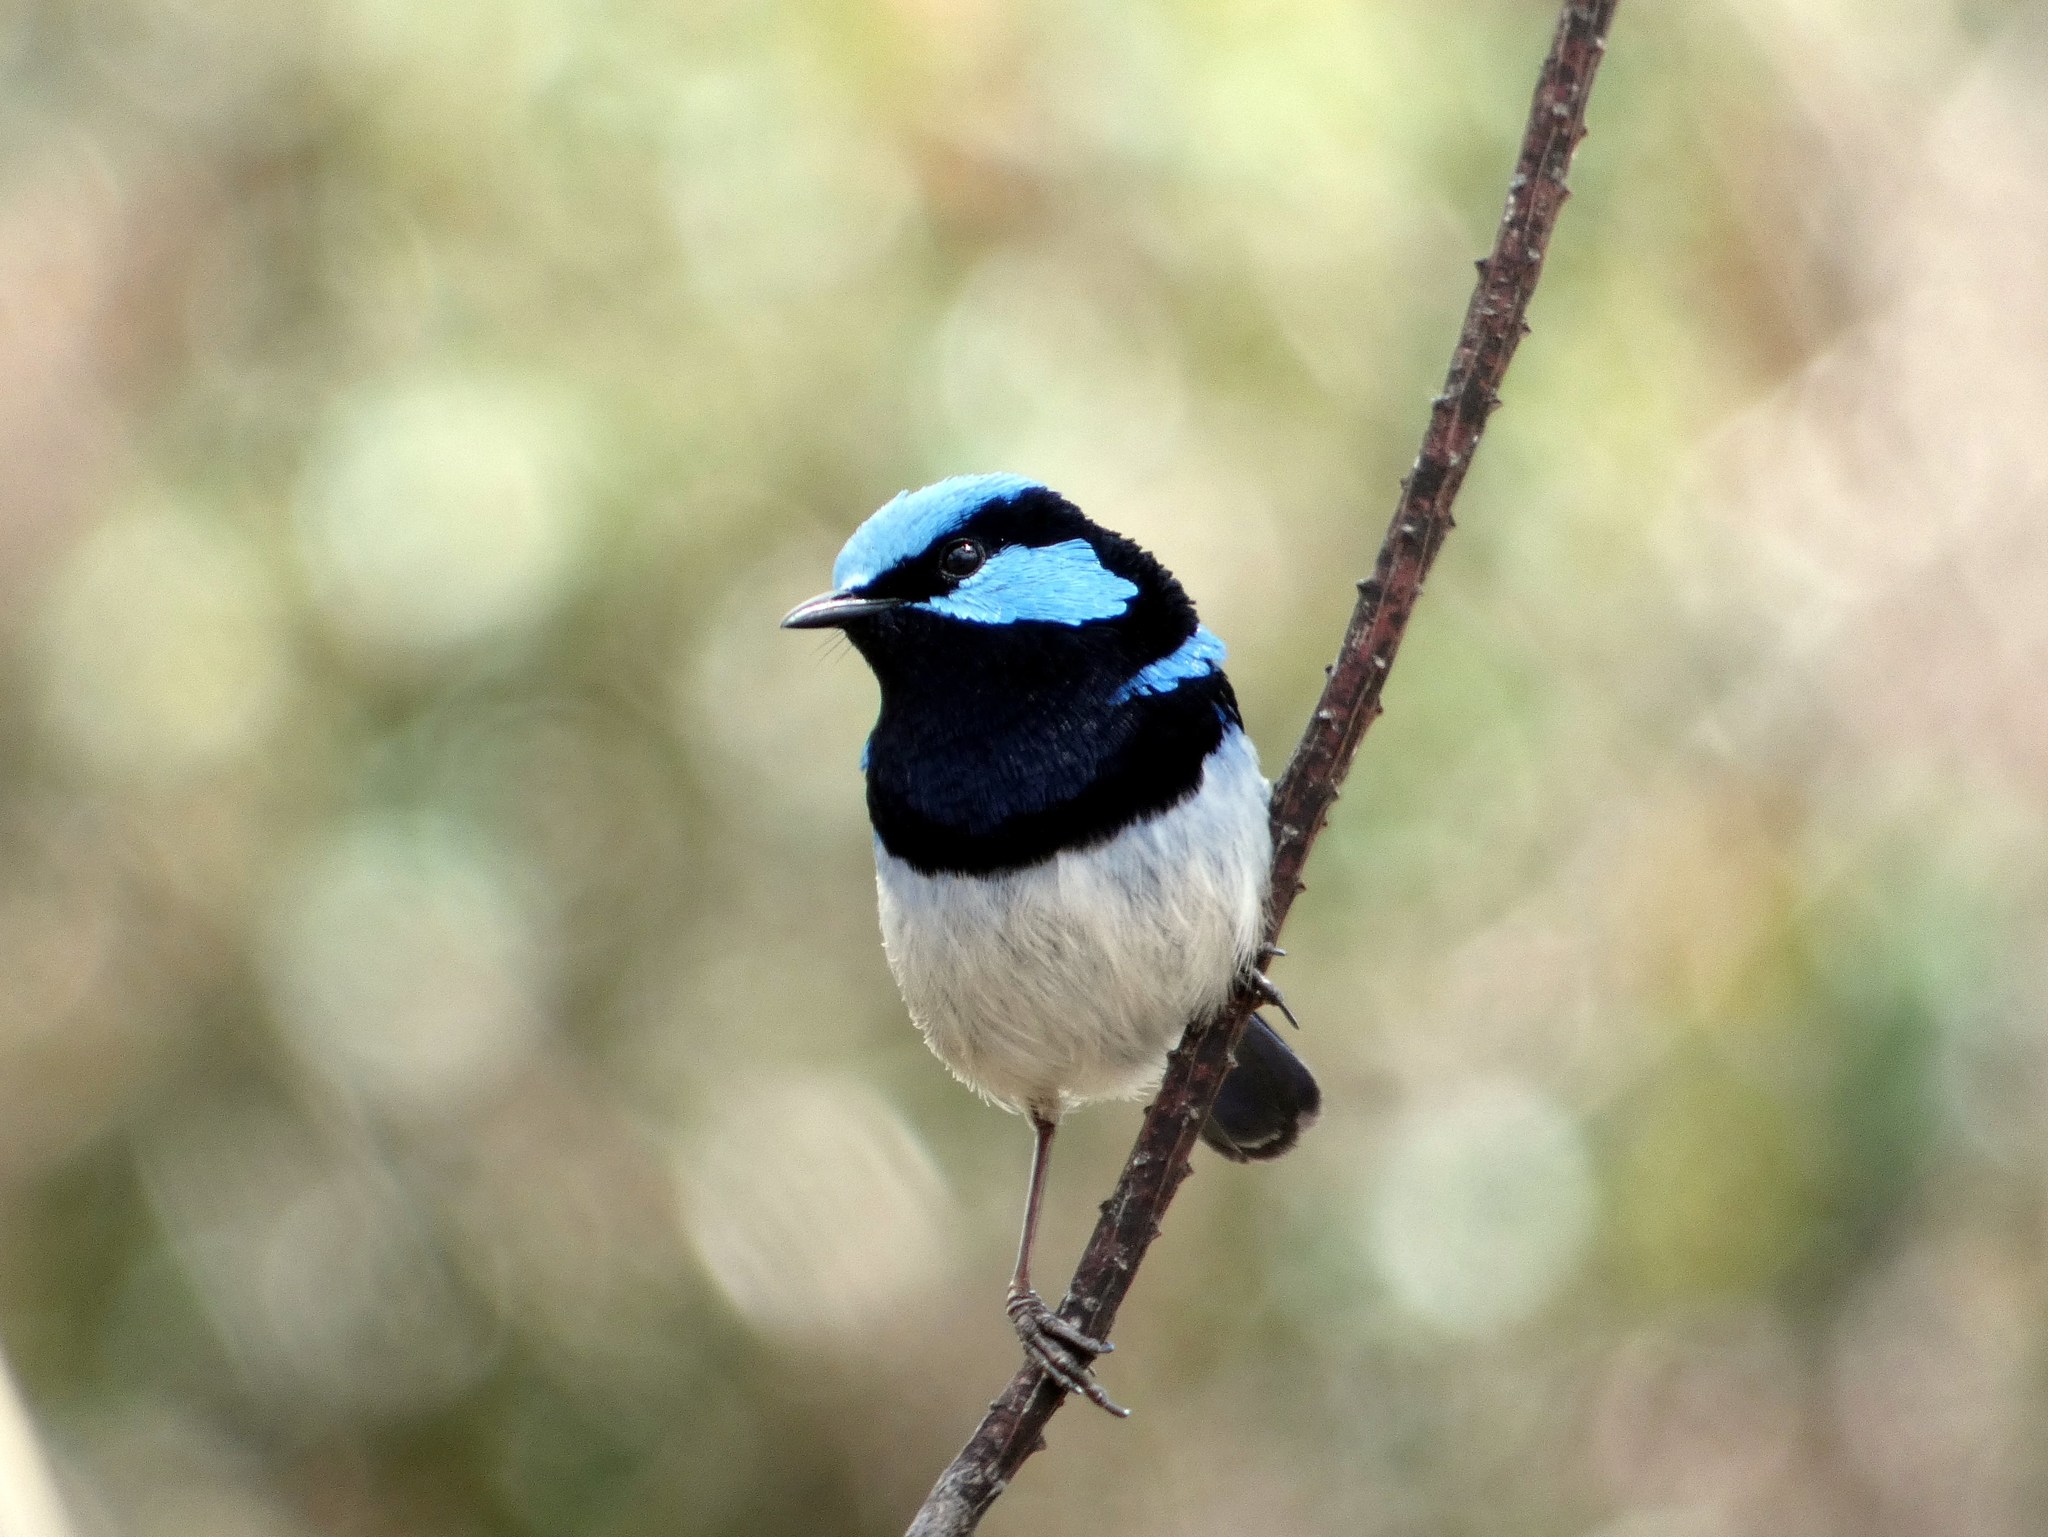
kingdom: Animalia
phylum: Chordata
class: Aves
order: Passeriformes
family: Maluridae
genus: Malurus
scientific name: Malurus cyaneus
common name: Superb fairywren
